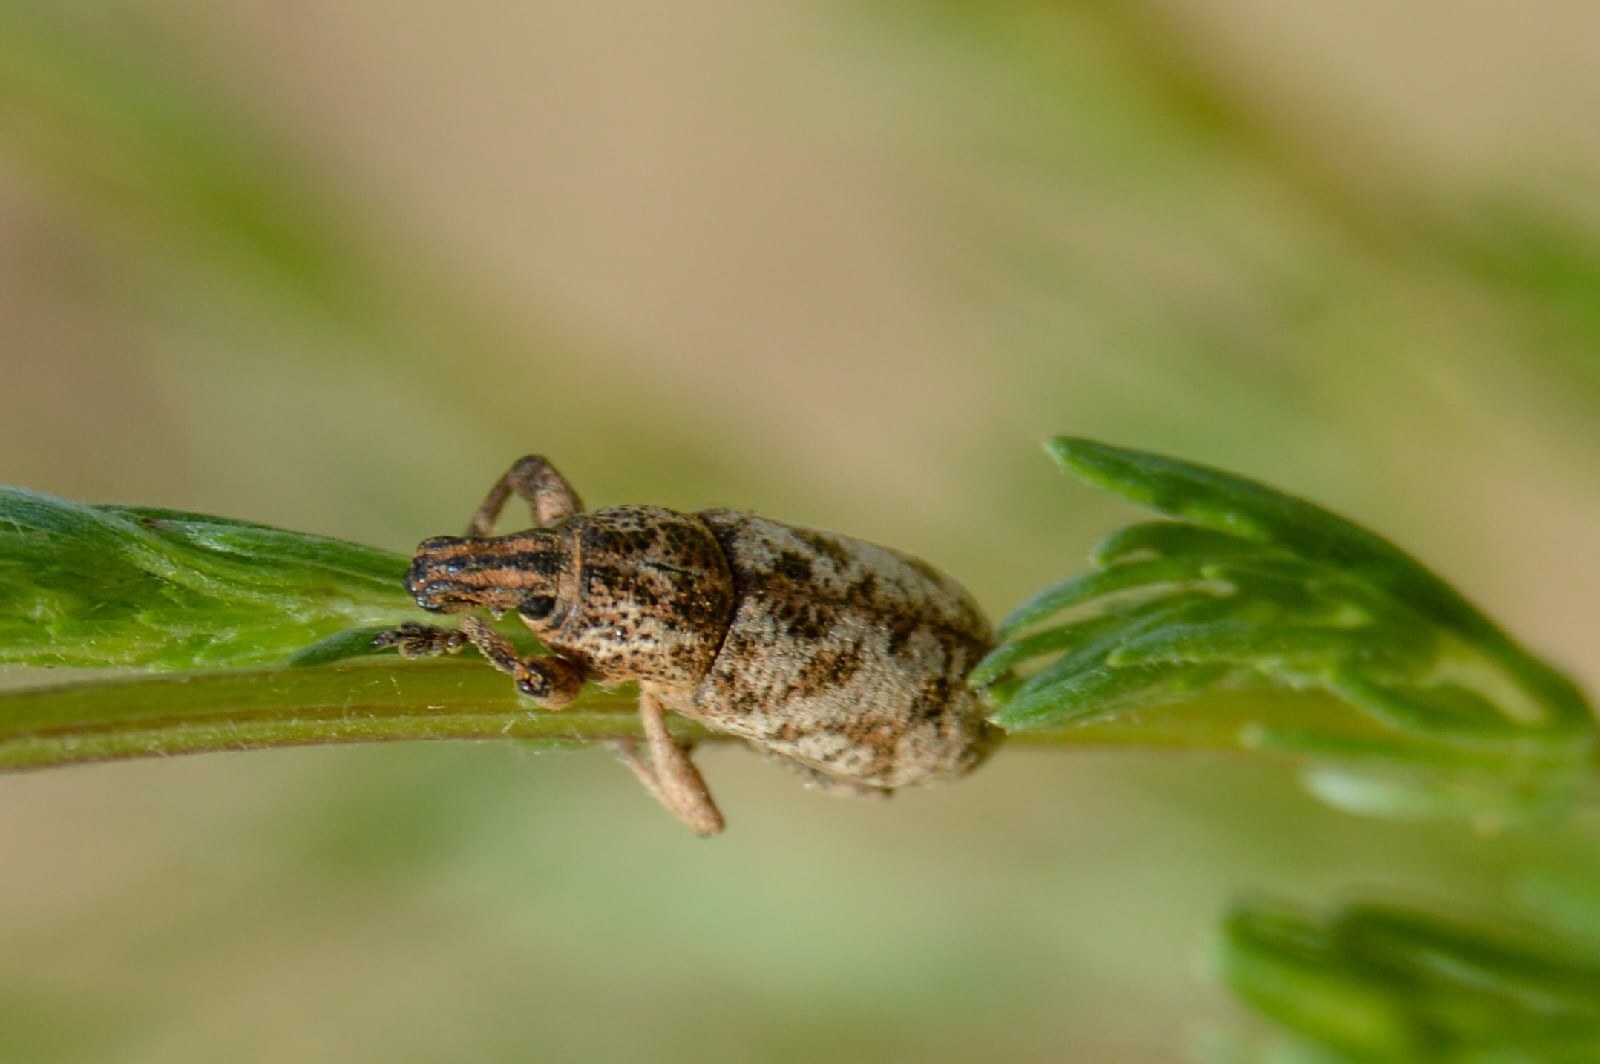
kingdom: Animalia
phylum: Arthropoda
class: Insecta
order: Coleoptera
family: Curculionidae
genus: Cyphocleonus
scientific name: Cyphocleonus dealbatus
